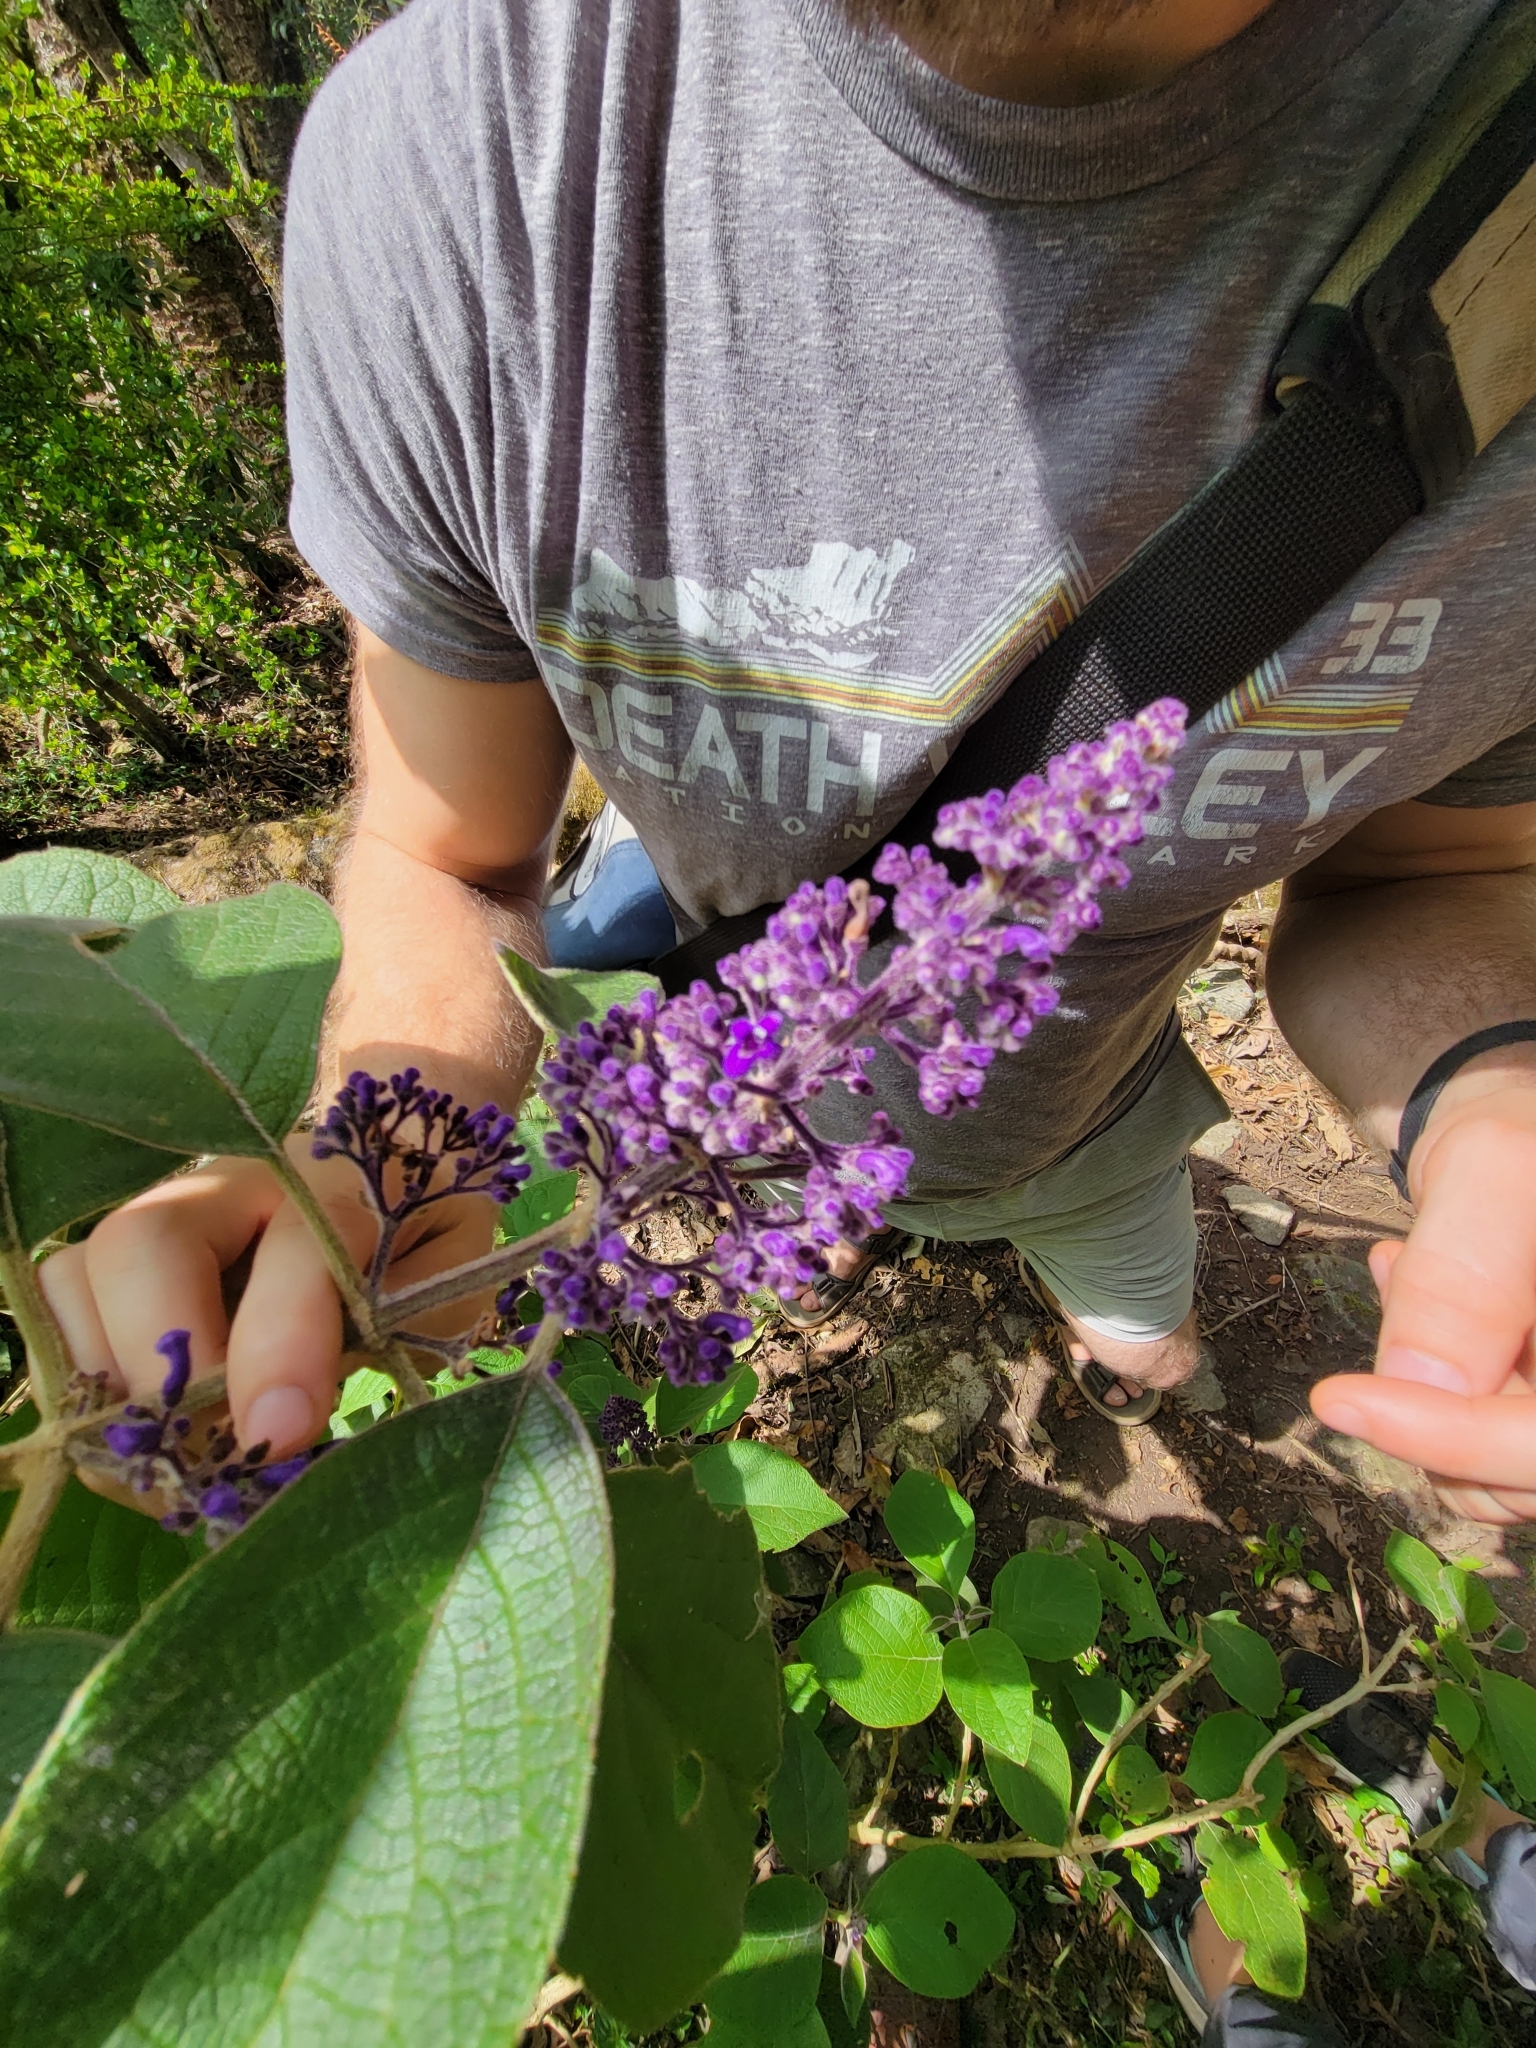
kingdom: Plantae
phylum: Tracheophyta
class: Magnoliopsida
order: Lamiales
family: Lamiaceae
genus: Cornutia
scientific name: Cornutia pyramidata
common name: Azulejo
